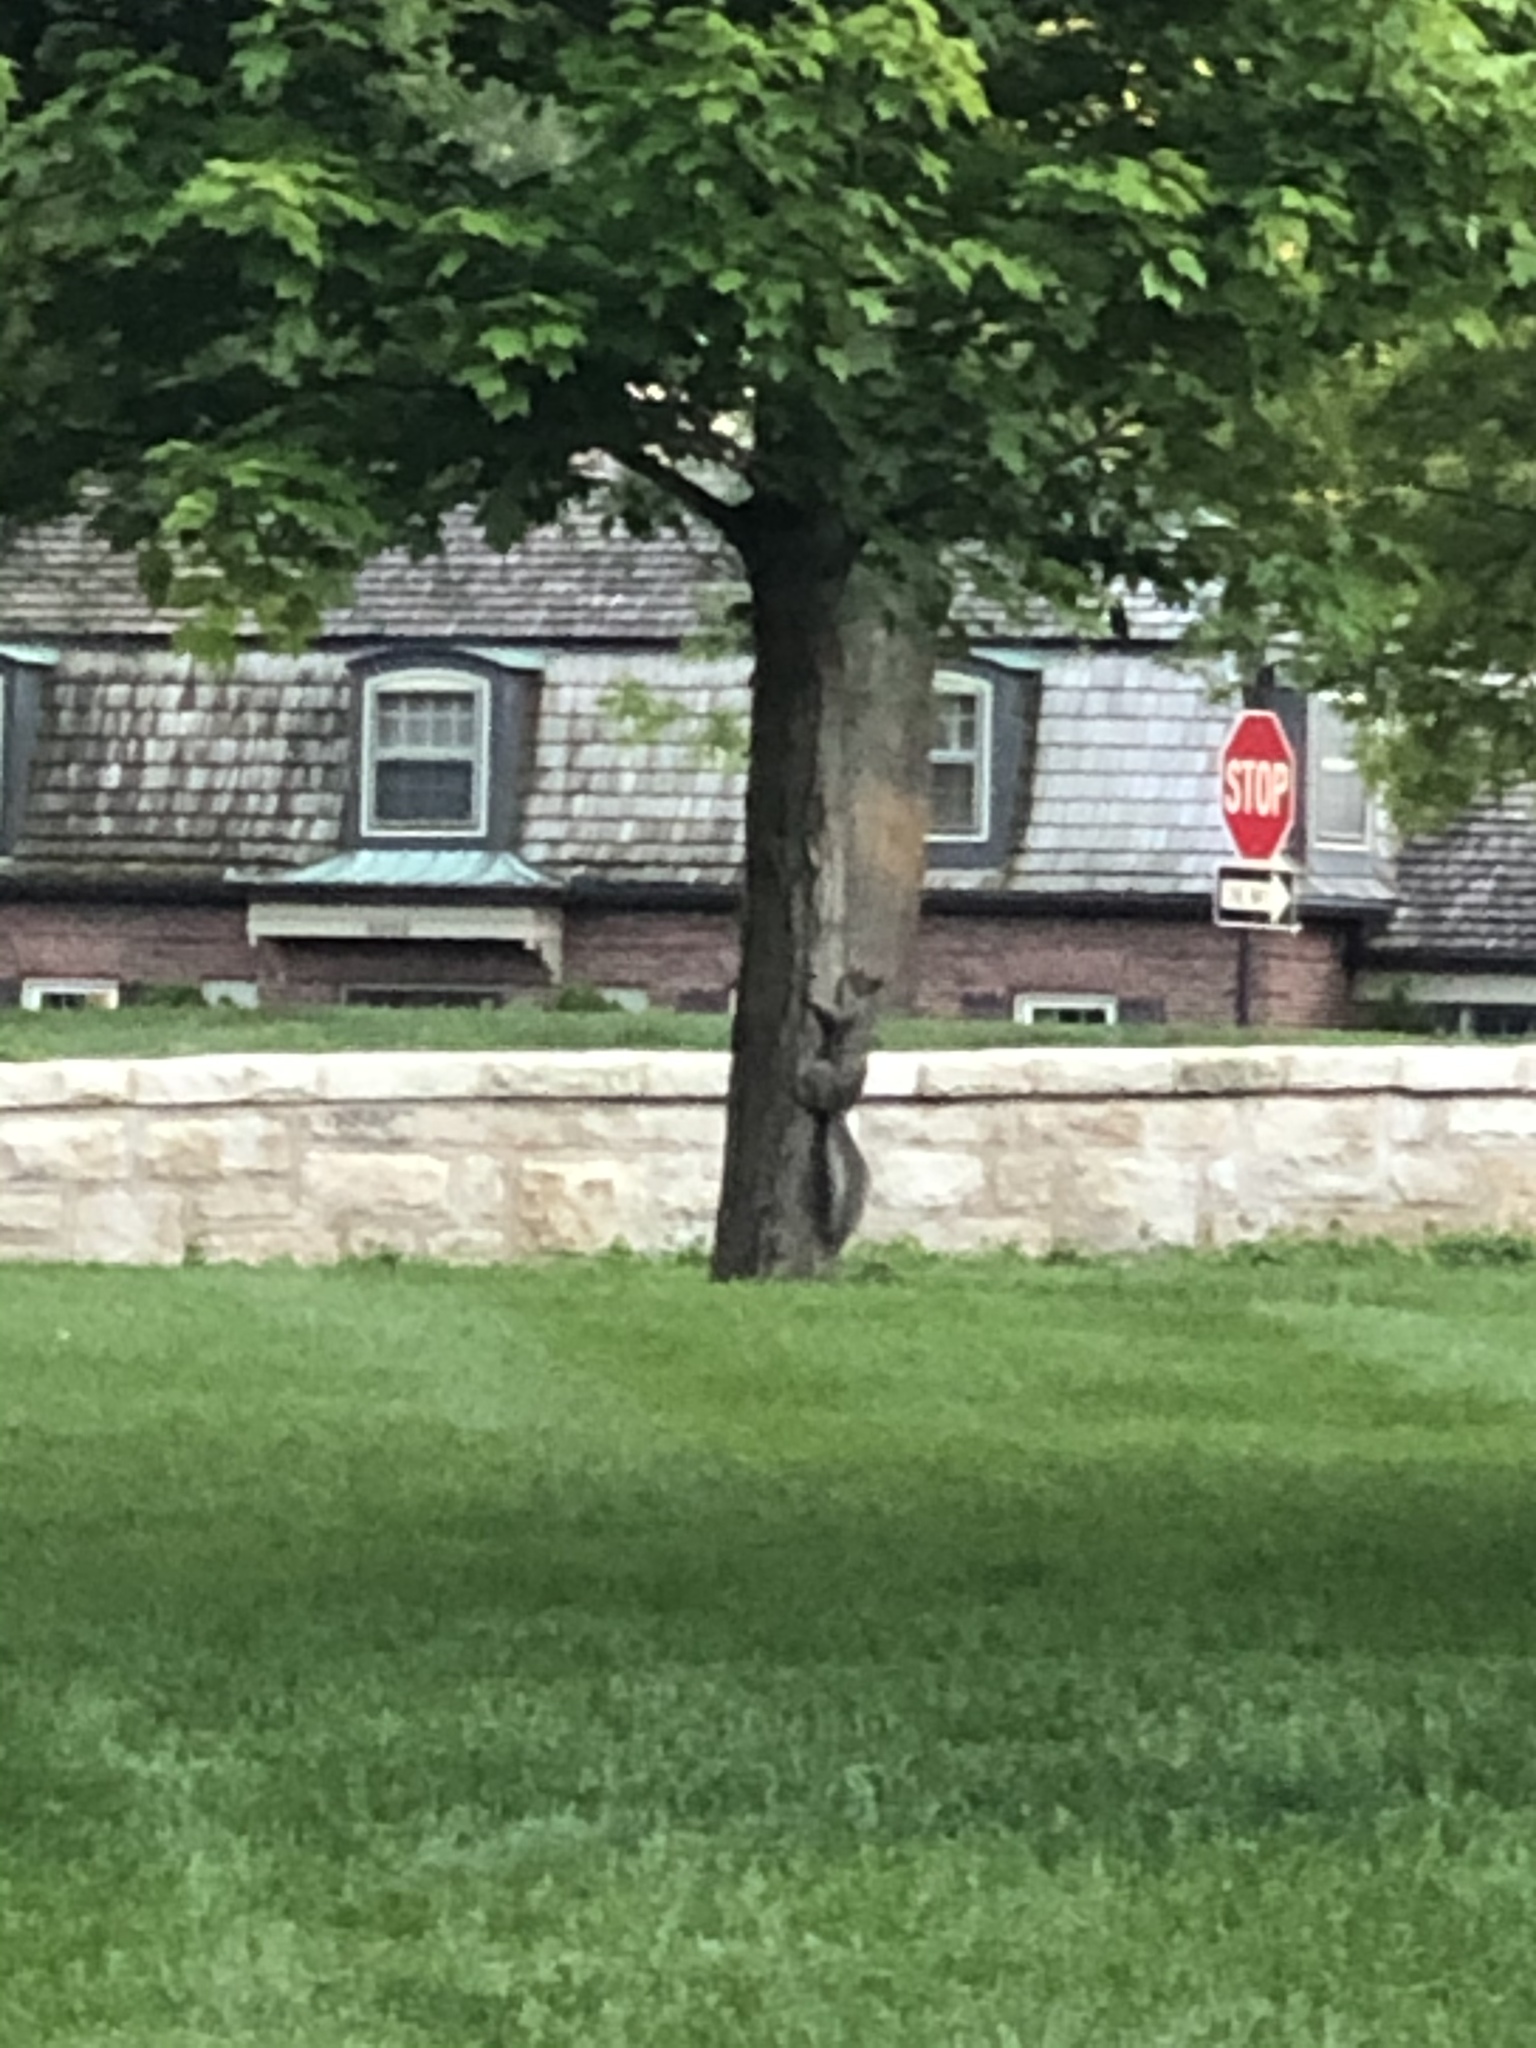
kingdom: Animalia
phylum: Chordata
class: Mammalia
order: Rodentia
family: Sciuridae
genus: Sciurus
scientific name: Sciurus carolinensis
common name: Eastern gray squirrel
